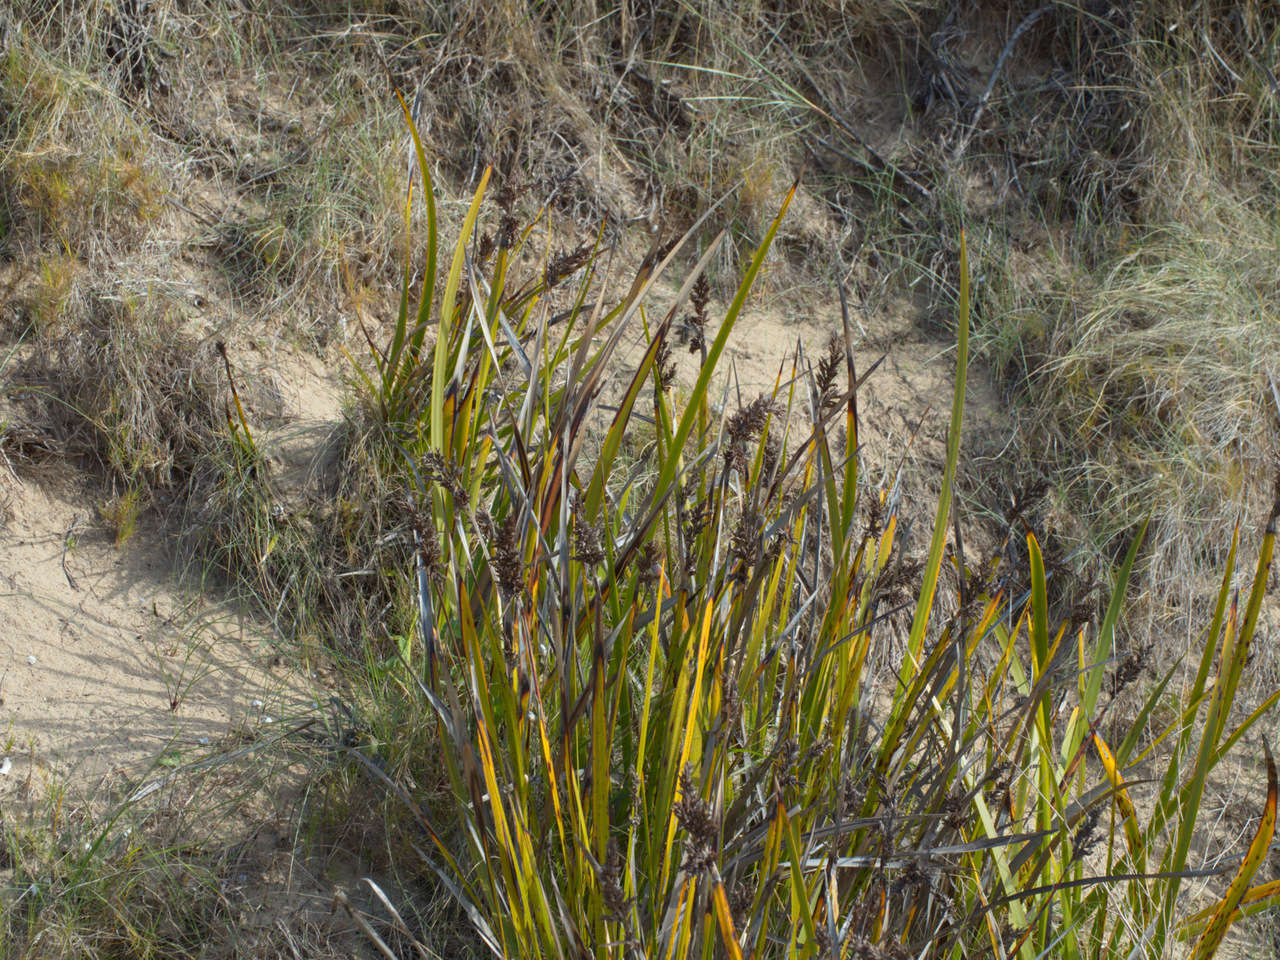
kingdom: Plantae
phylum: Tracheophyta
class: Liliopsida
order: Poales
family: Cyperaceae
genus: Lepidosperma
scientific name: Lepidosperma gladiatum
